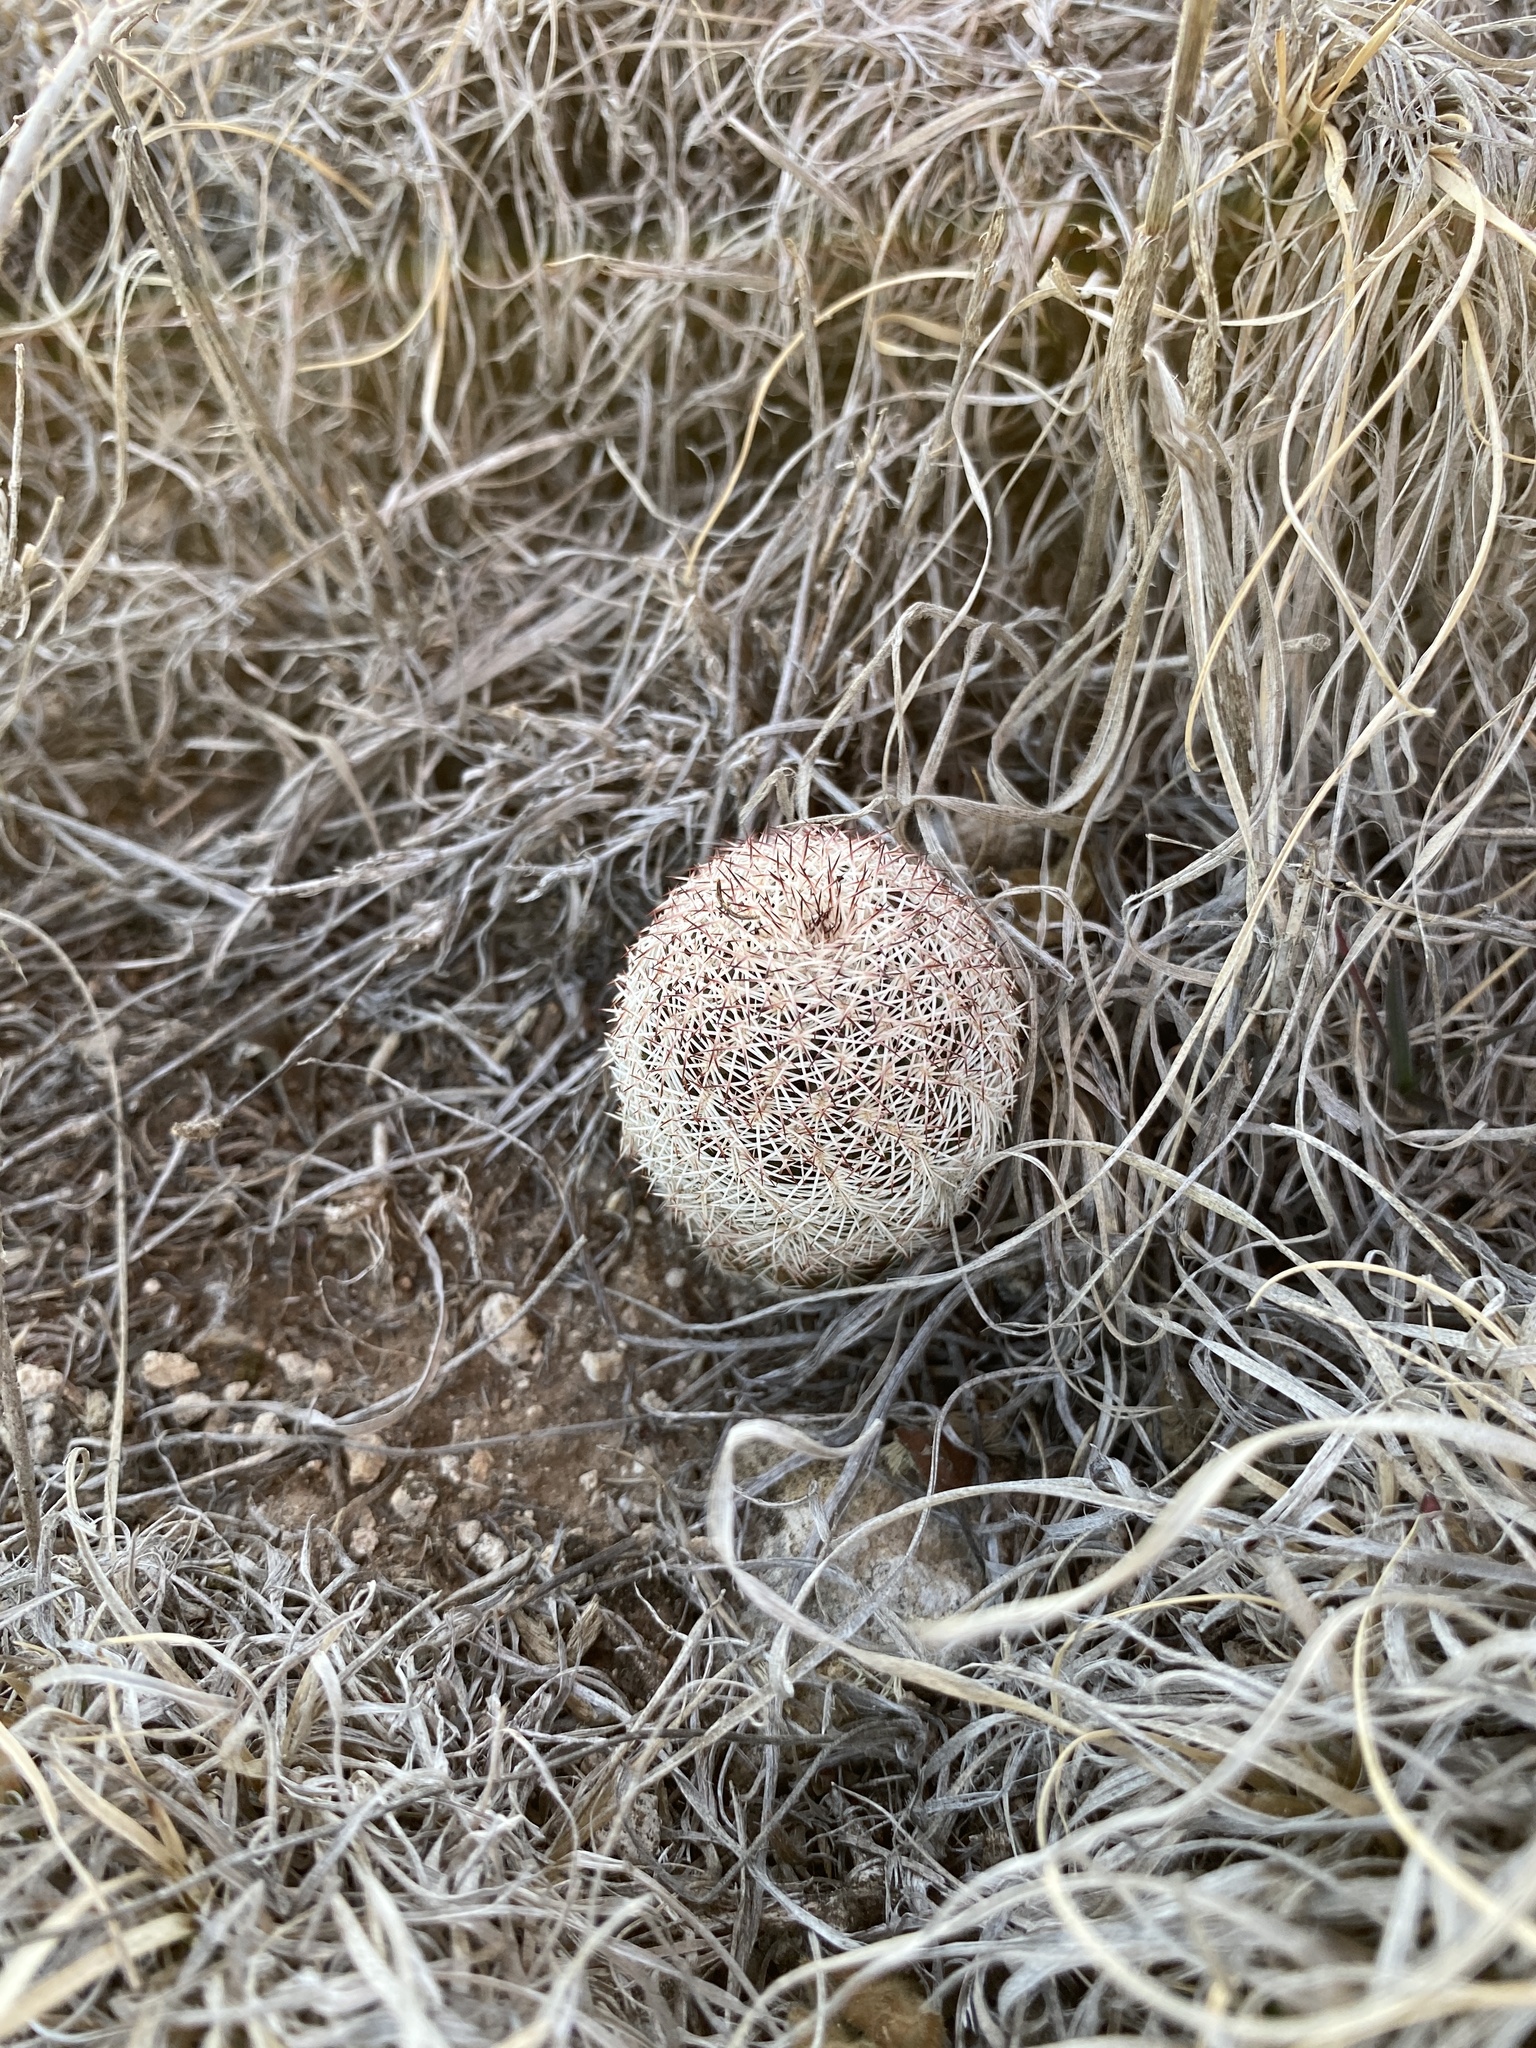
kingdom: Plantae
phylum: Tracheophyta
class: Magnoliopsida
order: Caryophyllales
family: Cactaceae
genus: Echinocereus
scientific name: Echinocereus reichenbachii
